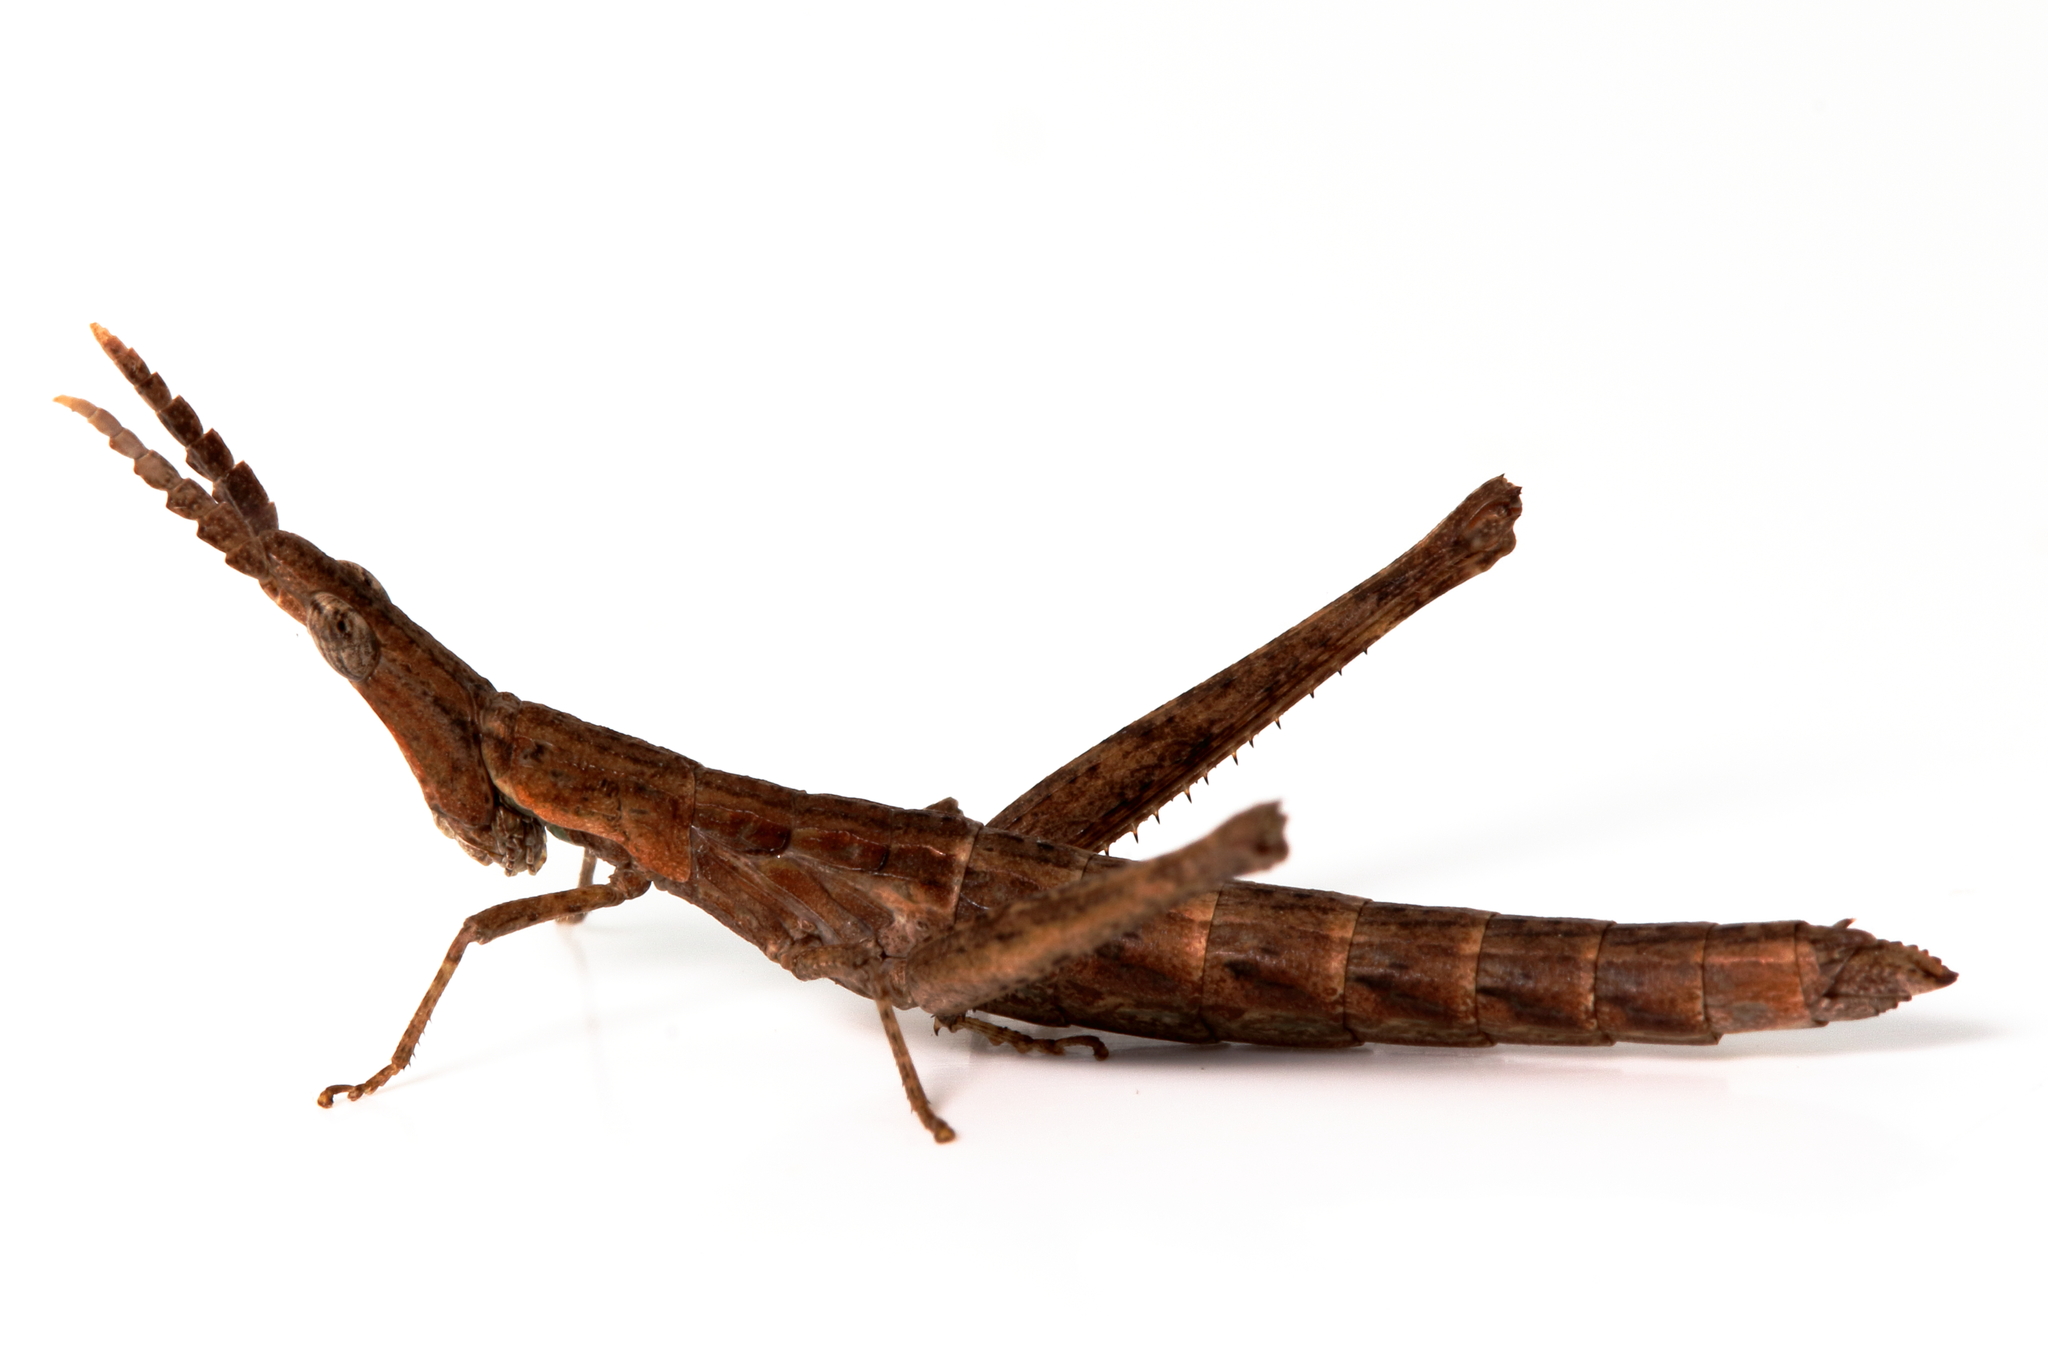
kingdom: Animalia
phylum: Arthropoda
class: Insecta
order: Orthoptera
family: Morabidae
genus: Vandiemenella
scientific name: Vandiemenella viatica
